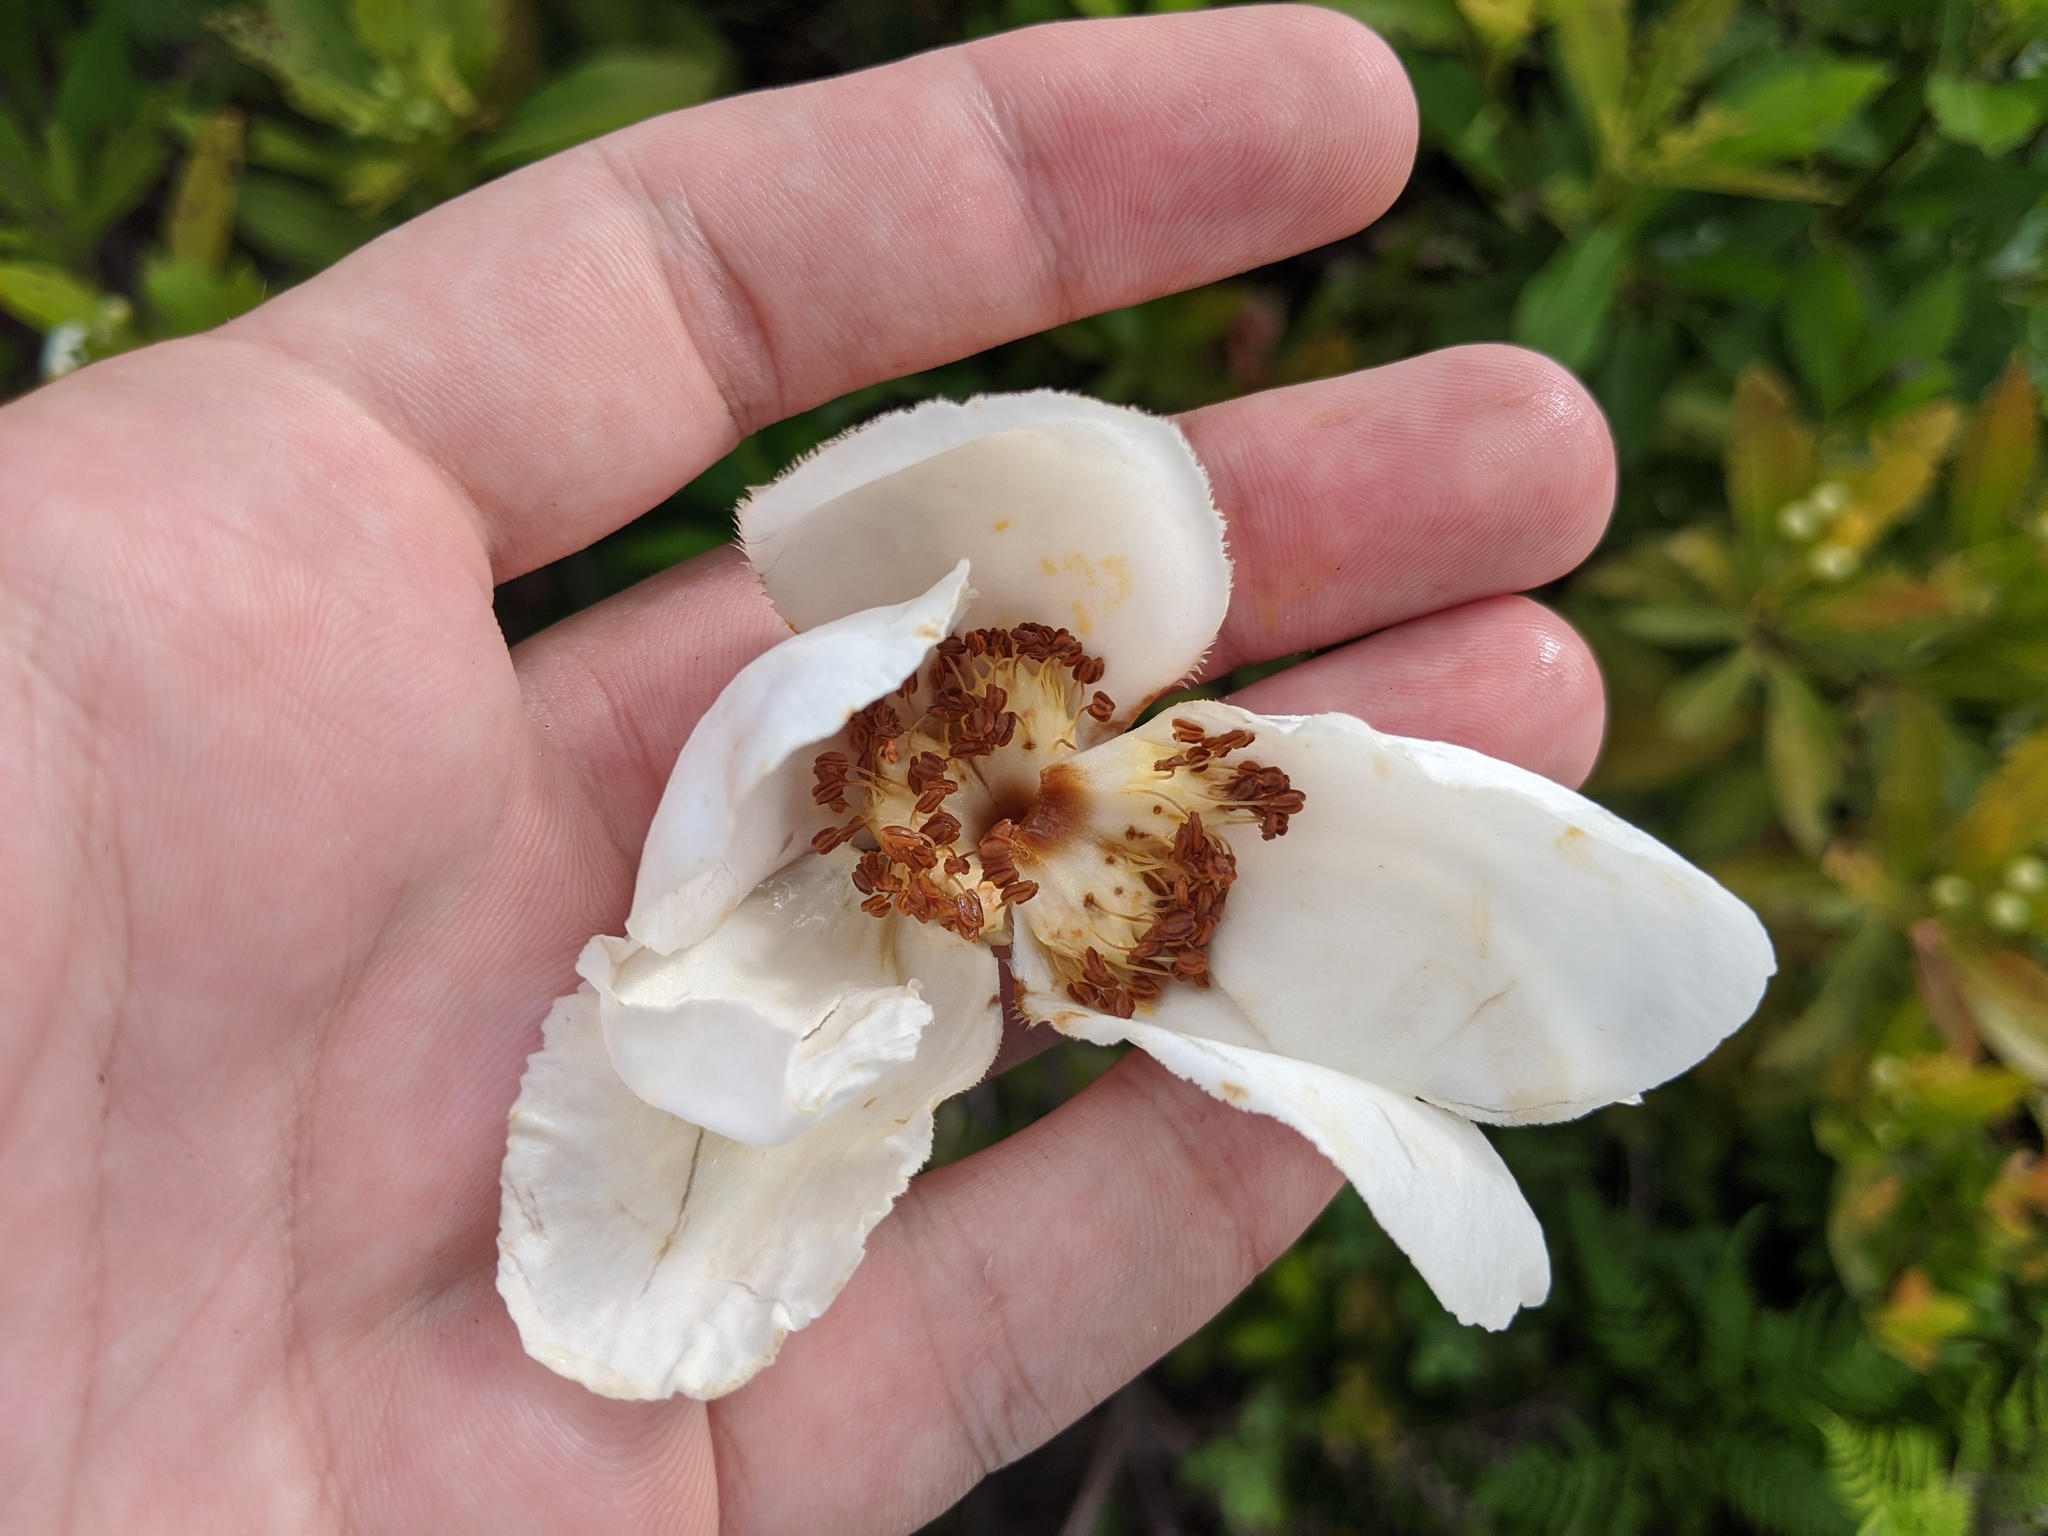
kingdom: Plantae
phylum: Tracheophyta
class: Magnoliopsida
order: Ericales
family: Theaceae
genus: Gordonia
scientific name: Gordonia lasianthus
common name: Loblolly bay
